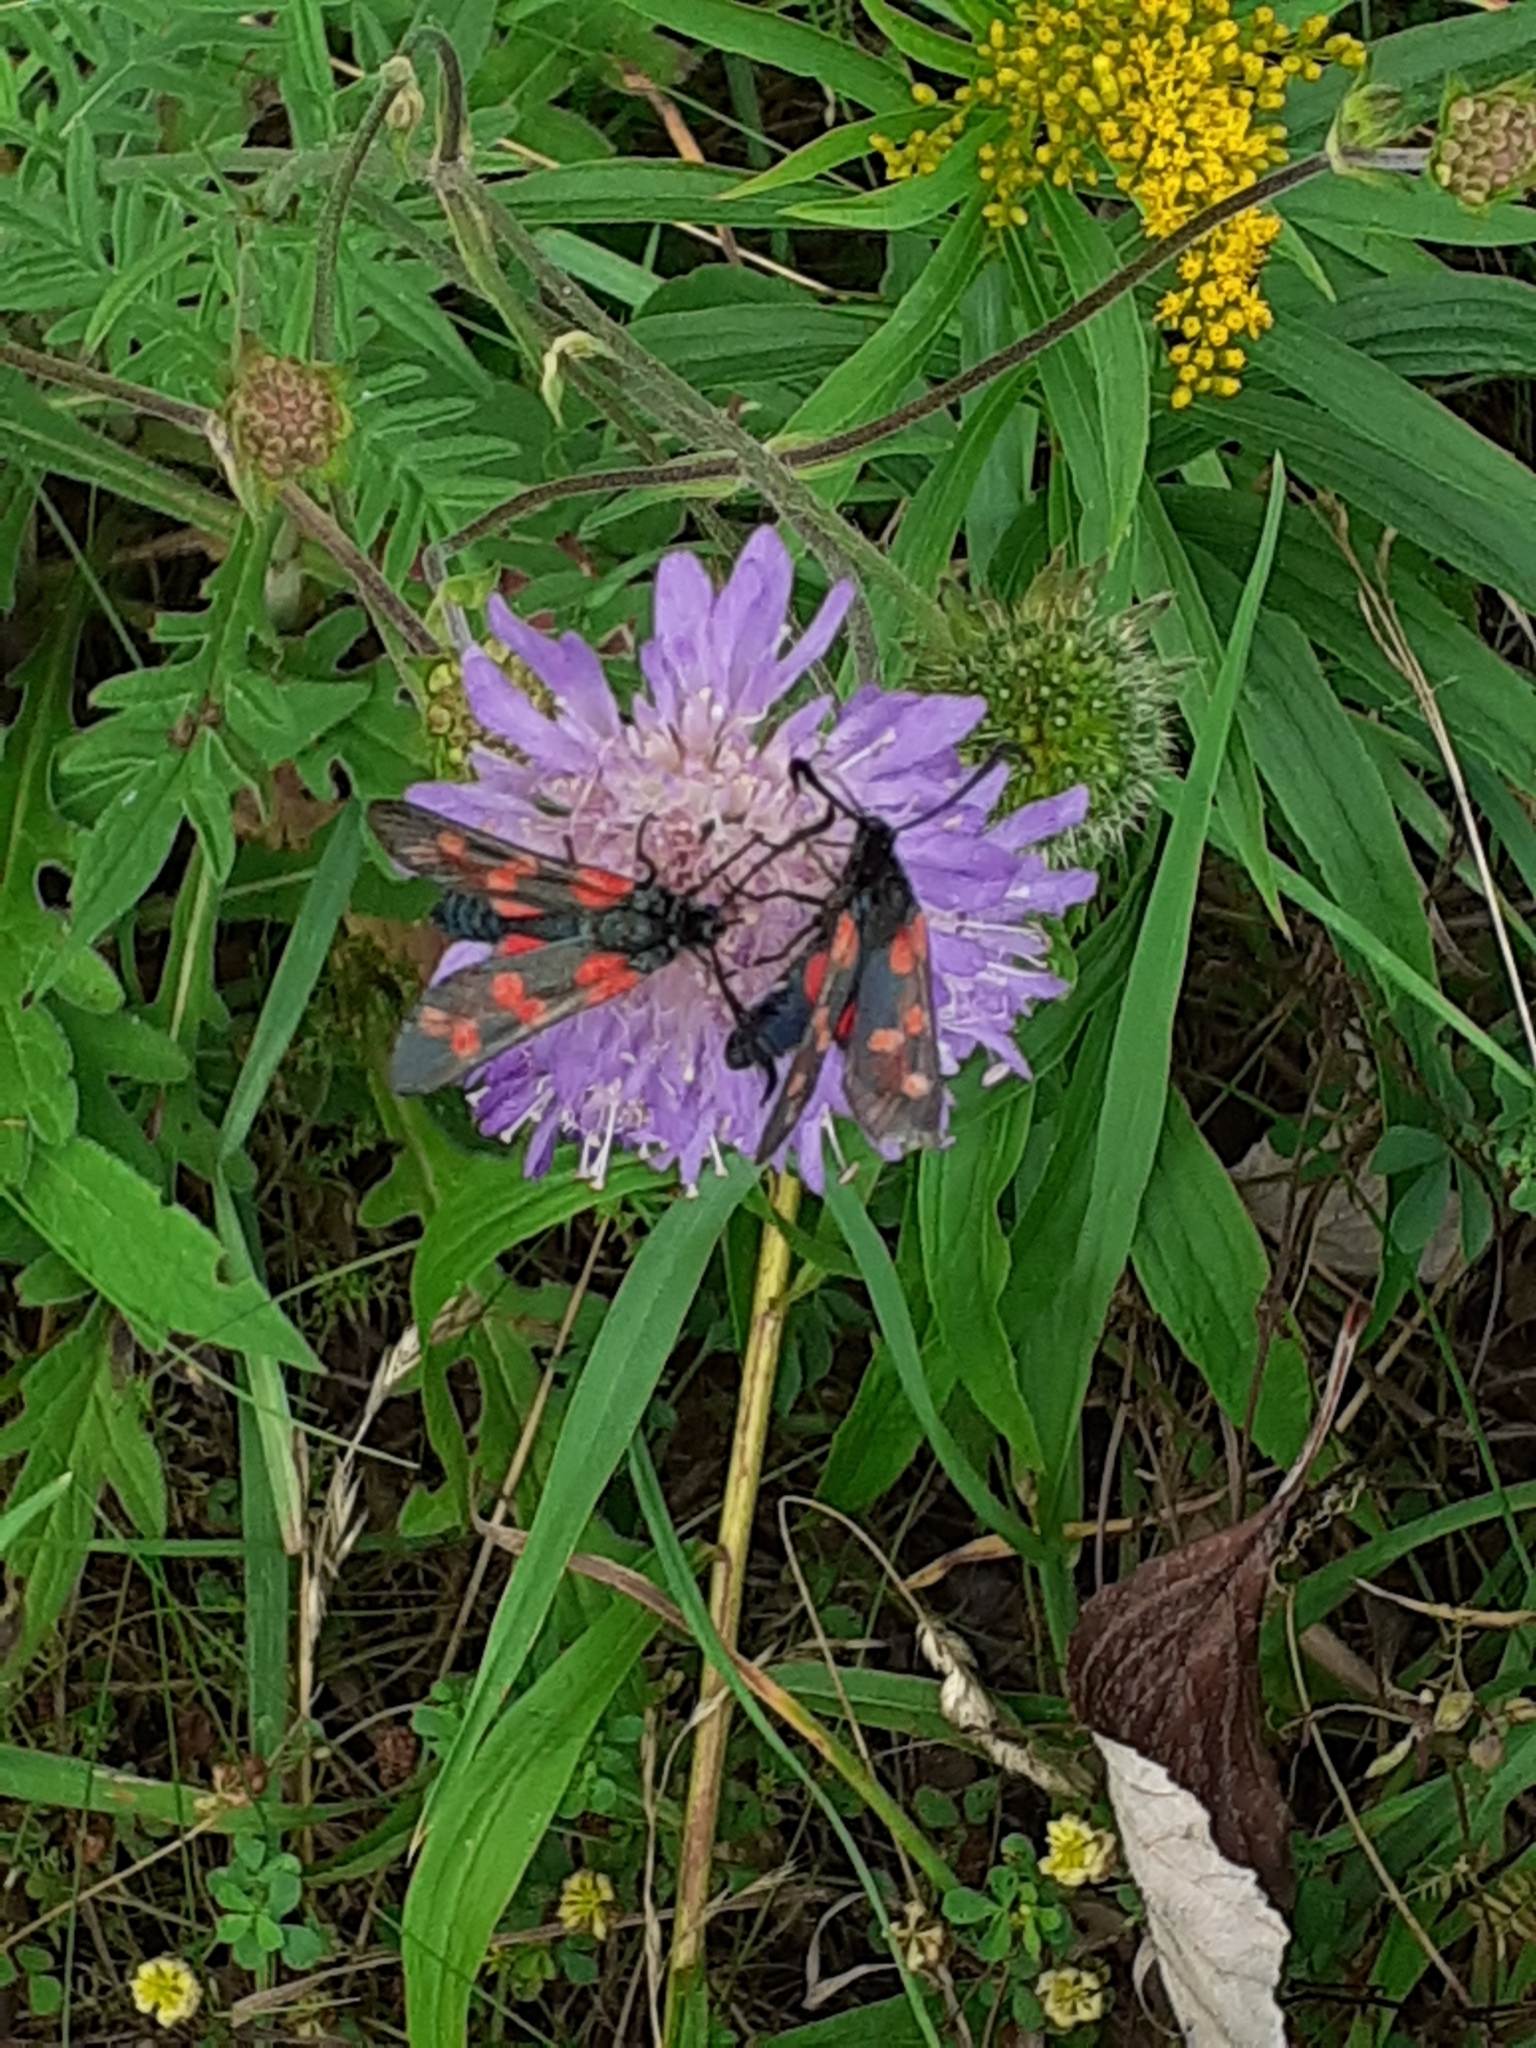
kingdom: Animalia
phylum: Arthropoda
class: Insecta
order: Lepidoptera
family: Zygaenidae
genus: Zygaena
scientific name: Zygaena filipendulae
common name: Six-spot burnet
